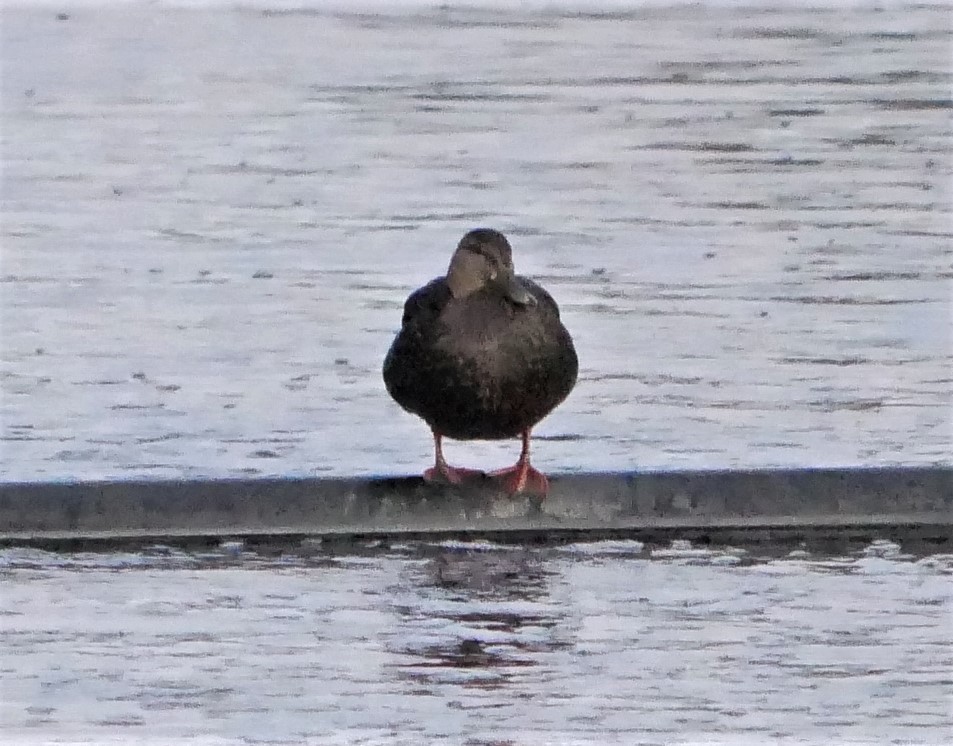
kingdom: Animalia
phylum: Chordata
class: Aves
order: Anseriformes
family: Anatidae
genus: Anas
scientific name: Anas rubripes
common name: American black duck
